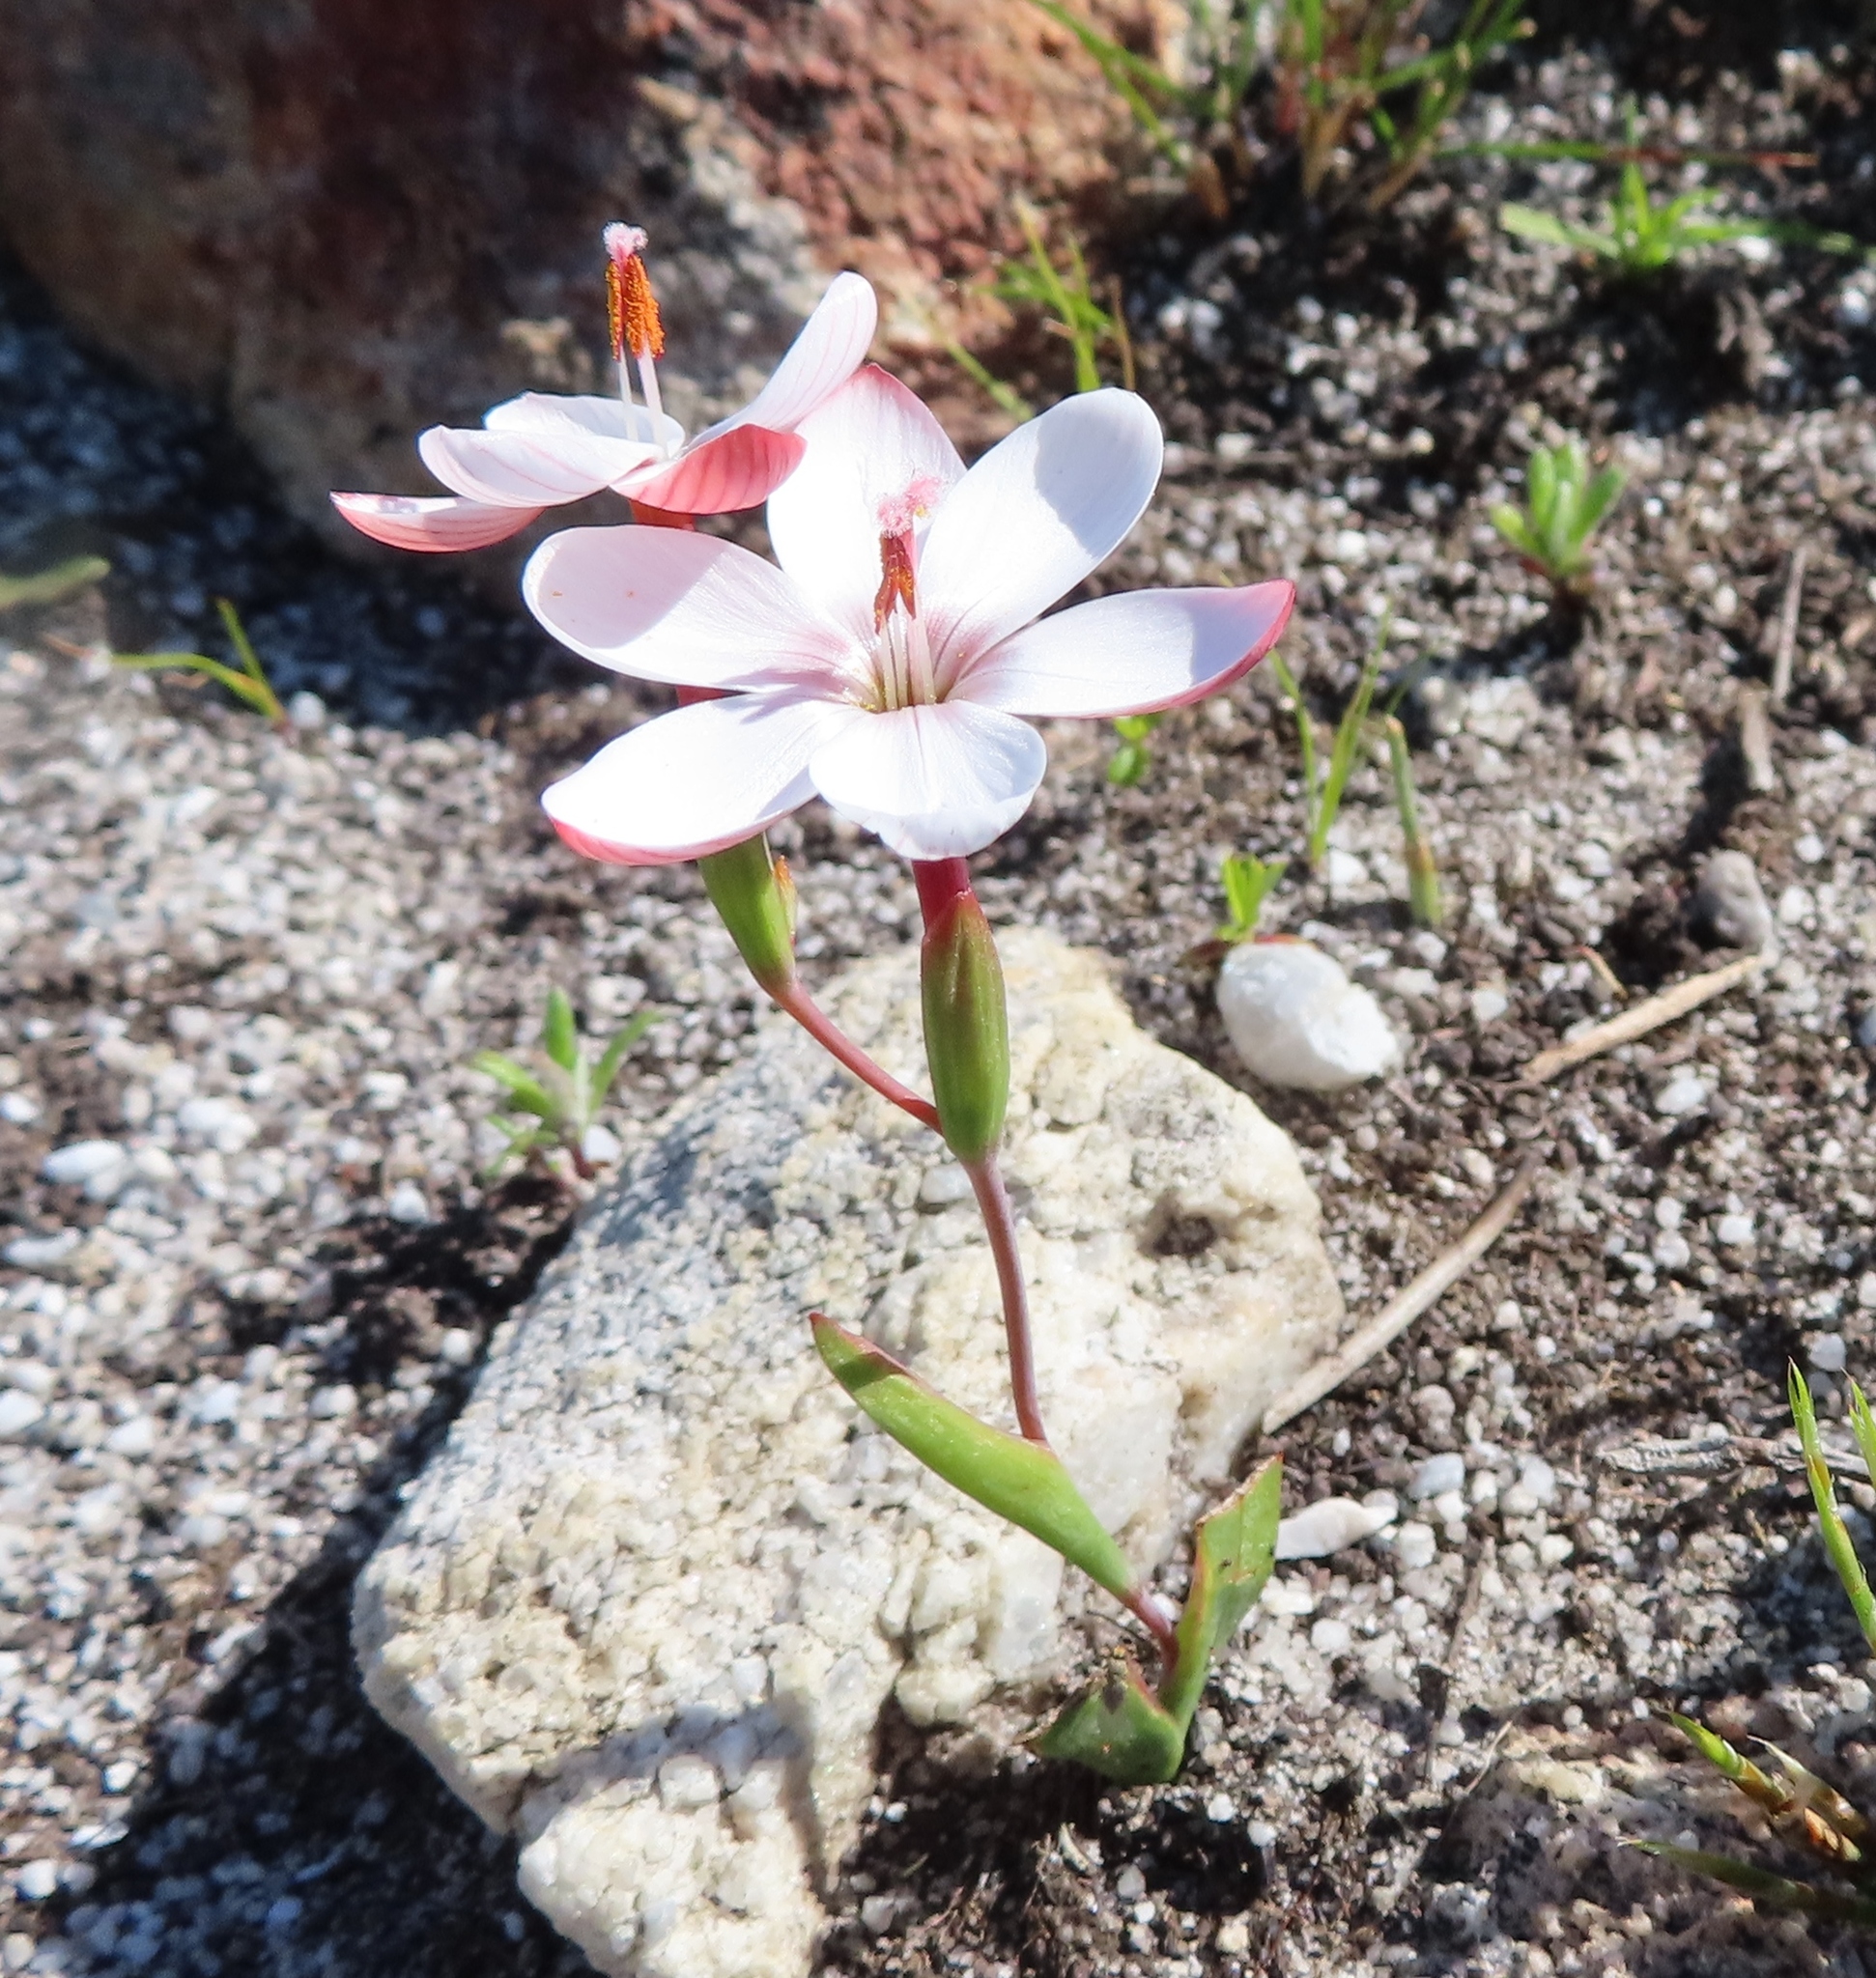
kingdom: Plantae
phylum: Tracheophyta
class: Liliopsida
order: Asparagales
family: Iridaceae
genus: Geissorhiza
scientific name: Geissorhiza ovata
